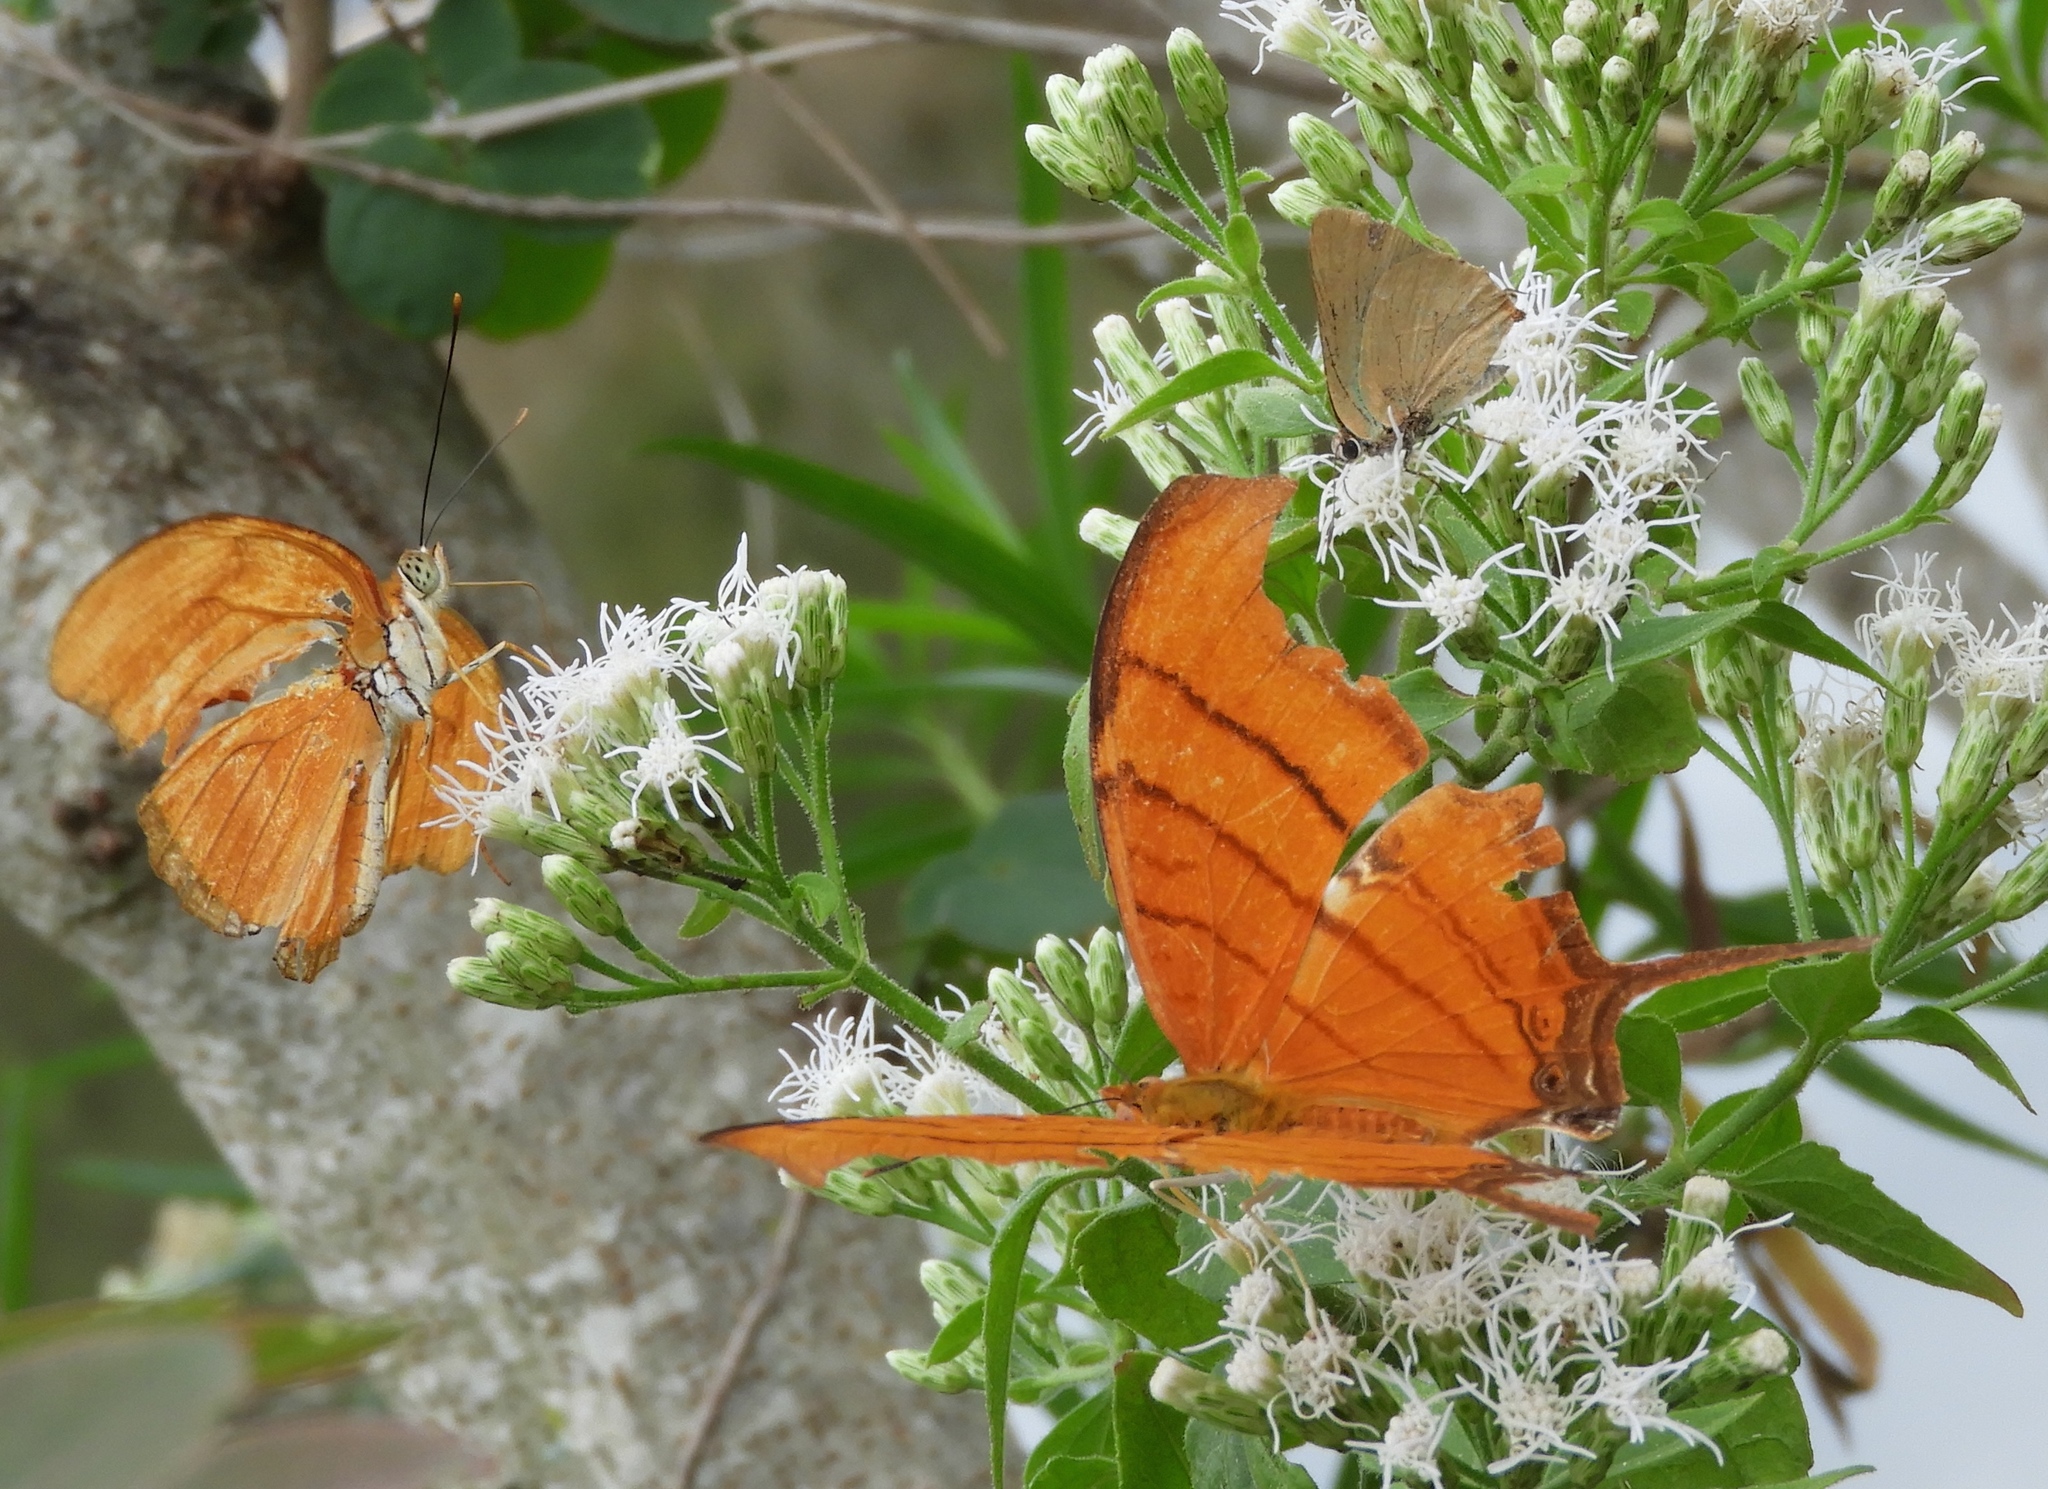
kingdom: Animalia
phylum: Arthropoda
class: Insecta
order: Lepidoptera
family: Nymphalidae
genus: Marpesia
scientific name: Marpesia petreus
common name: Red dagger wing
